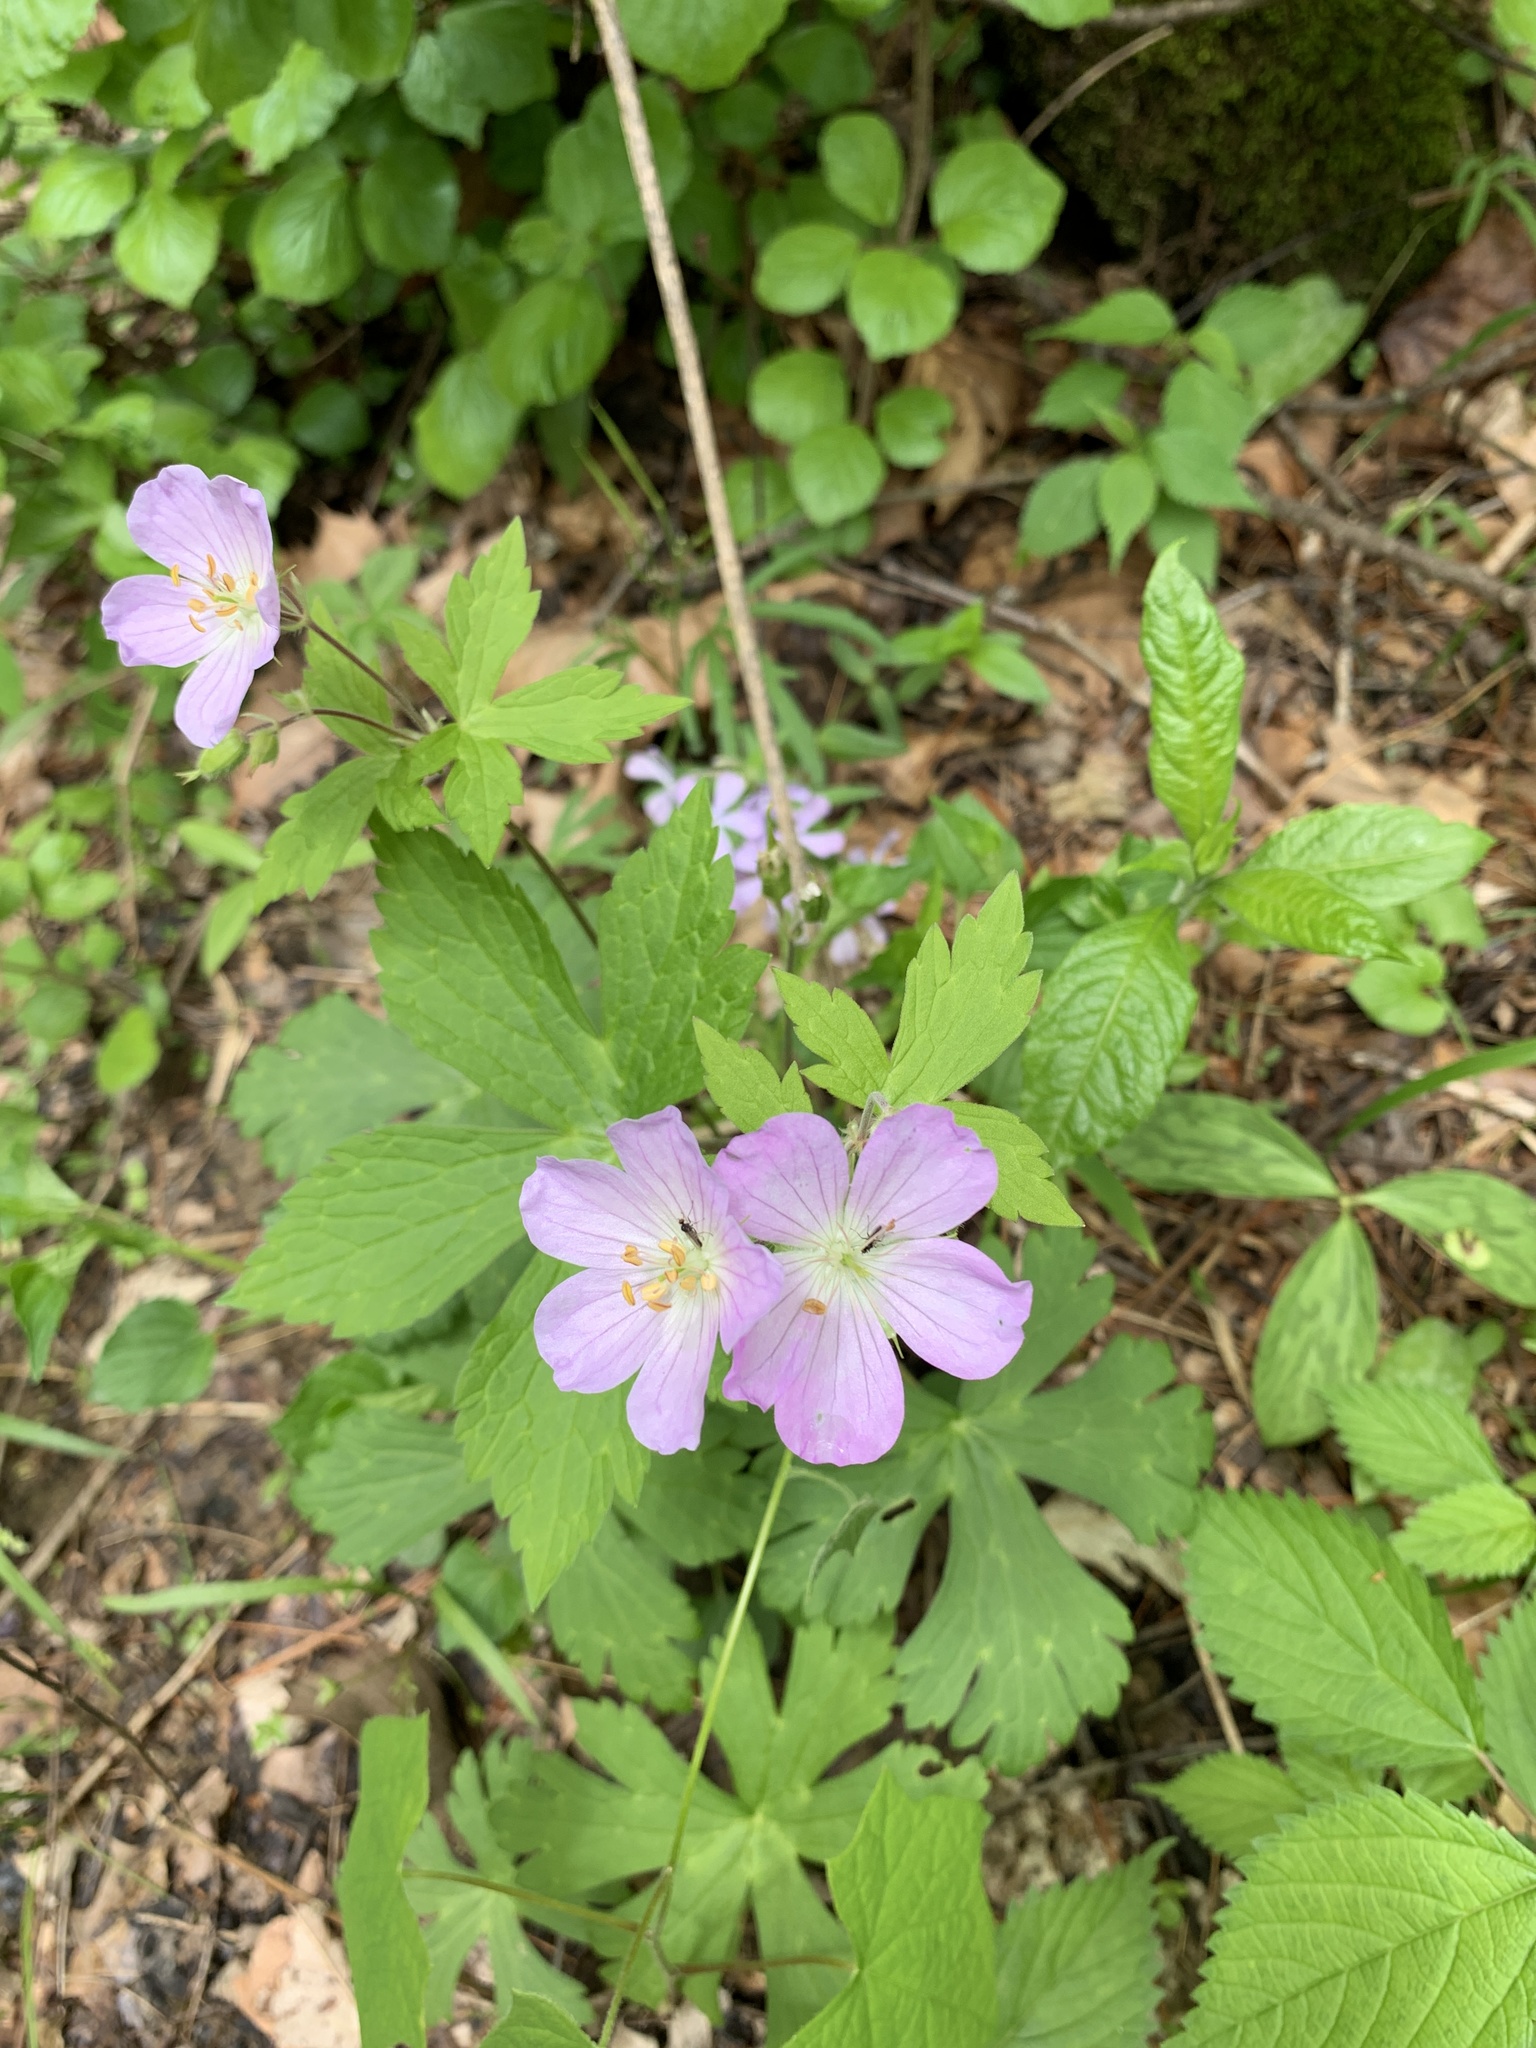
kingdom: Plantae
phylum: Tracheophyta
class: Magnoliopsida
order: Geraniales
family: Geraniaceae
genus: Geranium
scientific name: Geranium maculatum
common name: Spotted geranium
